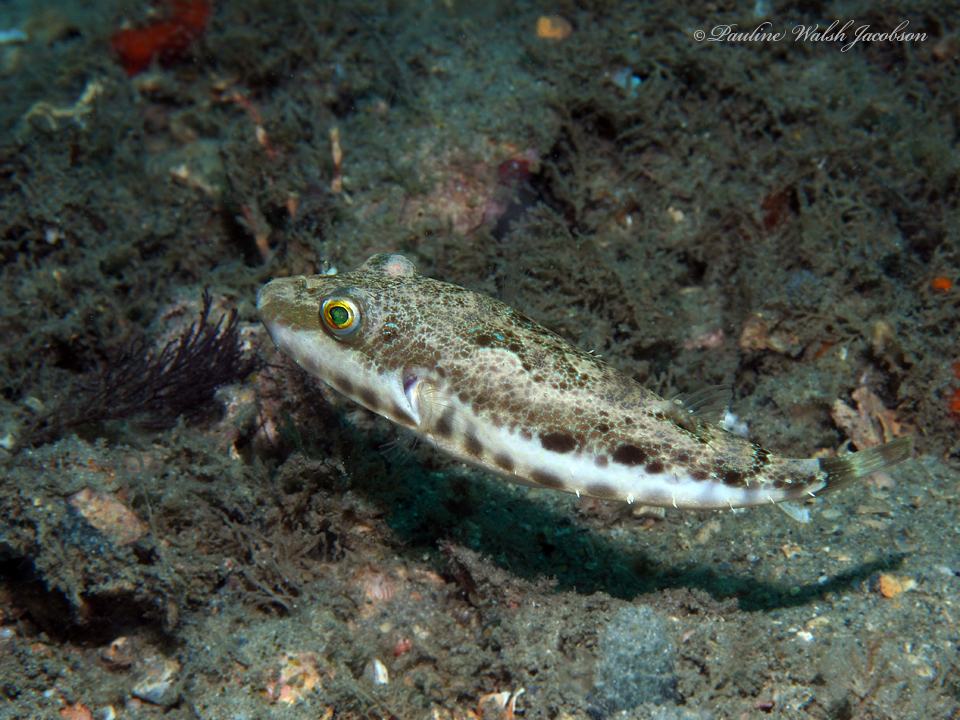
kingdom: Animalia
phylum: Chordata
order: Tetraodontiformes
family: Tetraodontidae
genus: Sphoeroides
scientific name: Sphoeroides spengleri
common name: Bandtail puffer
